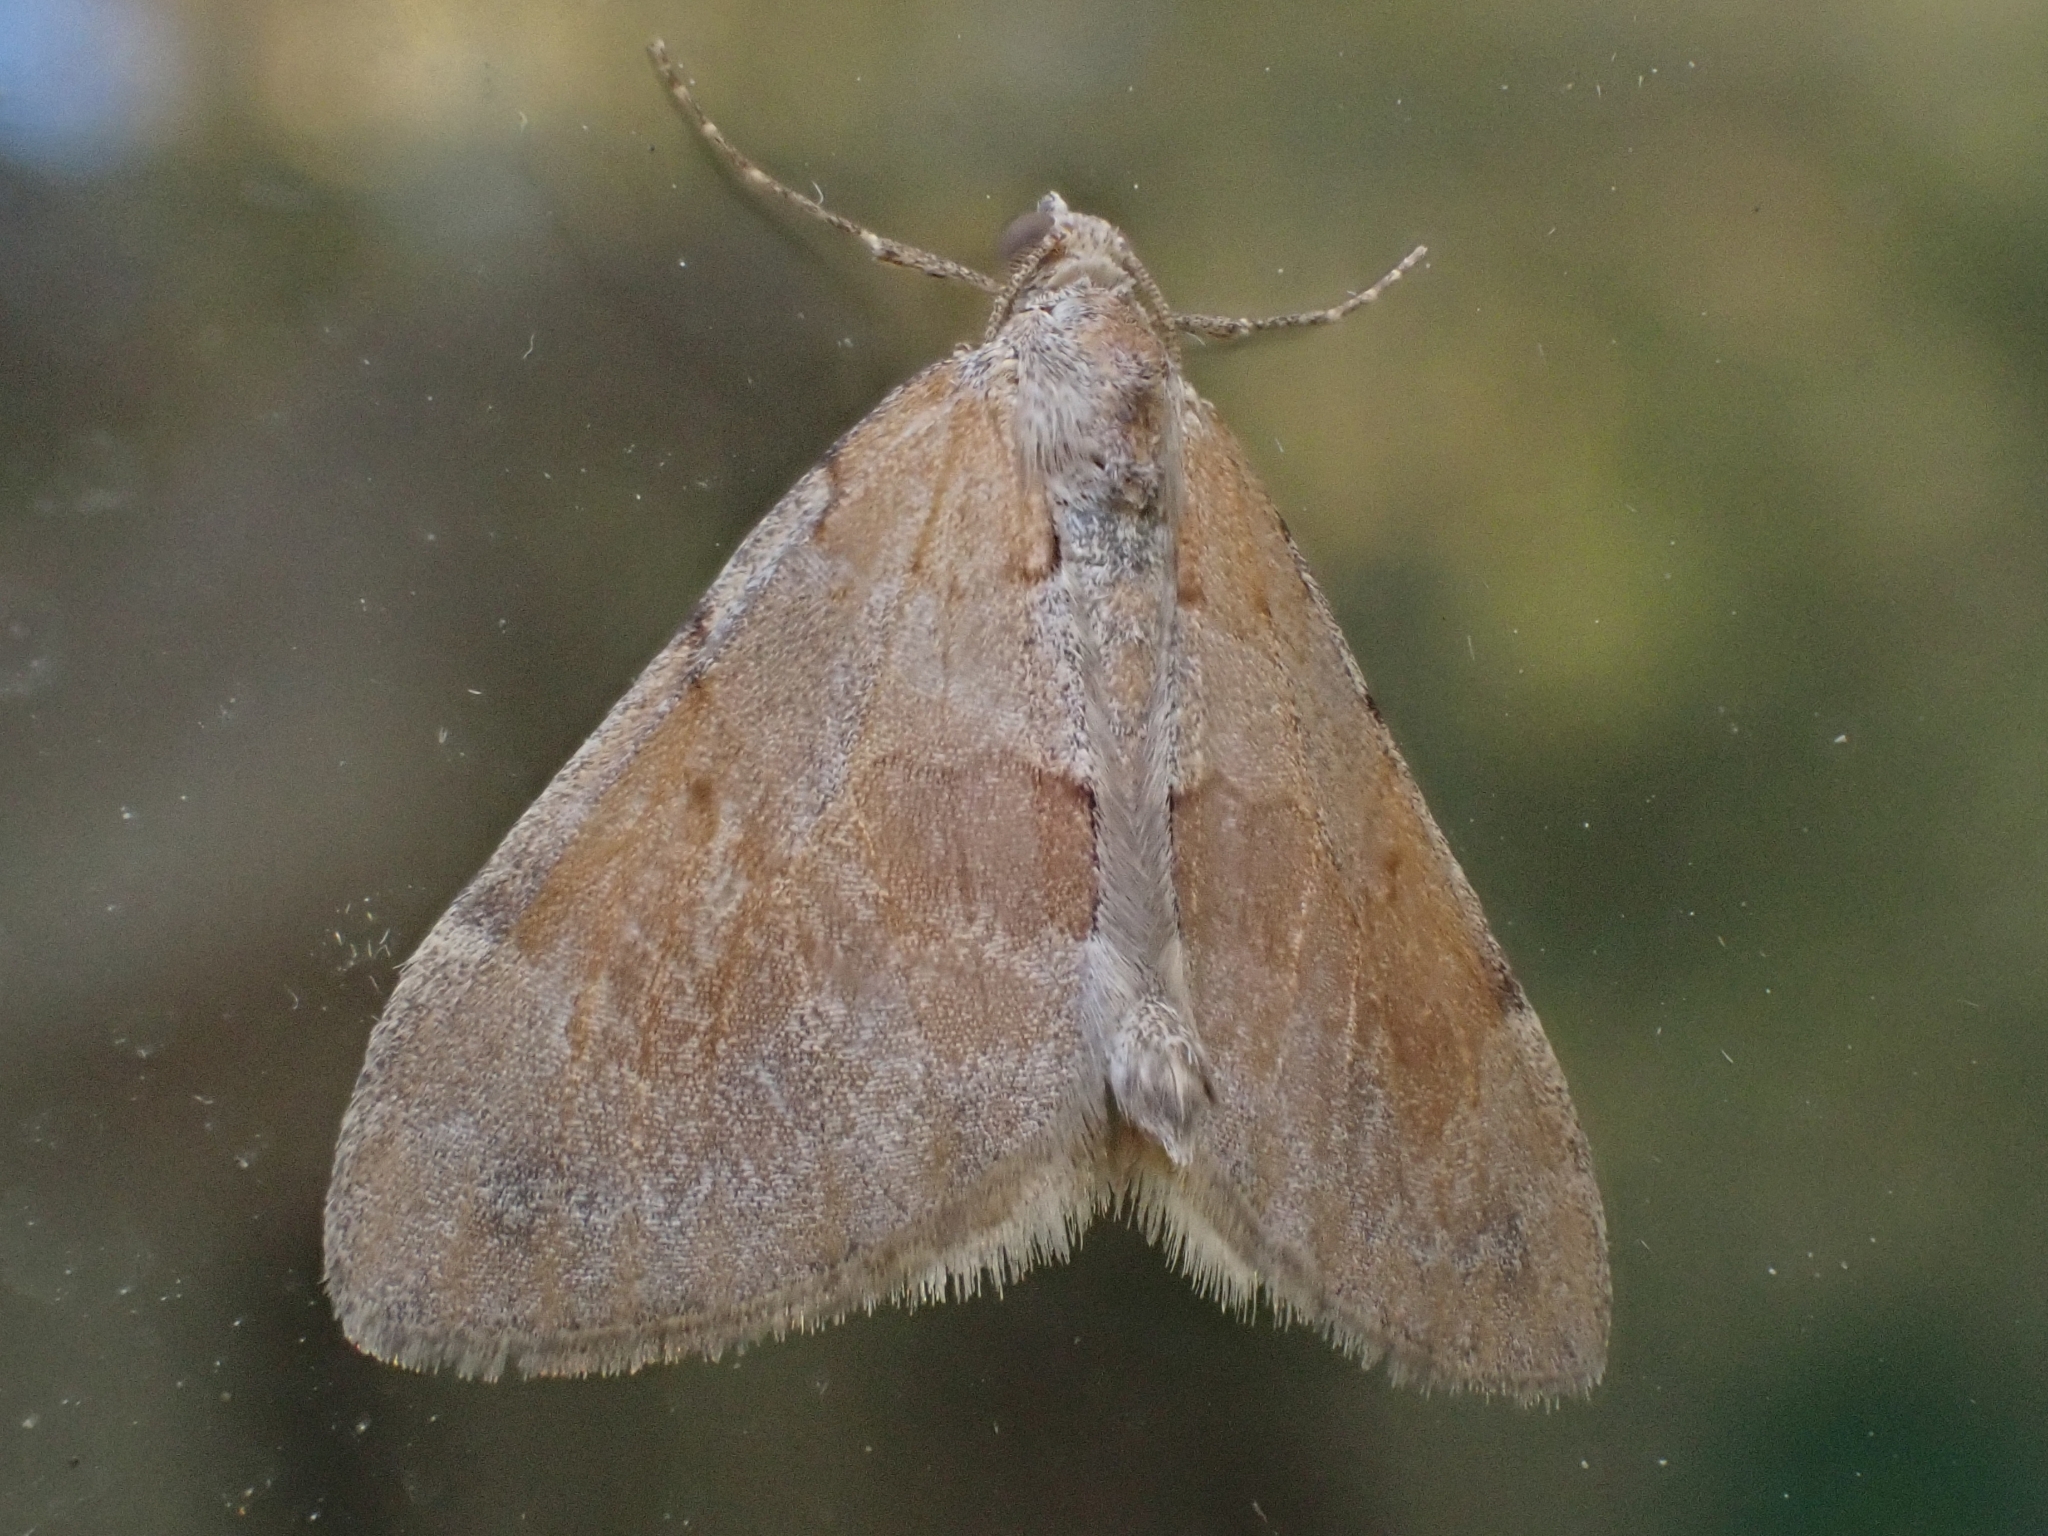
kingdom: Animalia
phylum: Arthropoda
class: Insecta
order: Lepidoptera
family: Geometridae
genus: Pennithera
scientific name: Pennithera firmata
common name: Pine carpet
